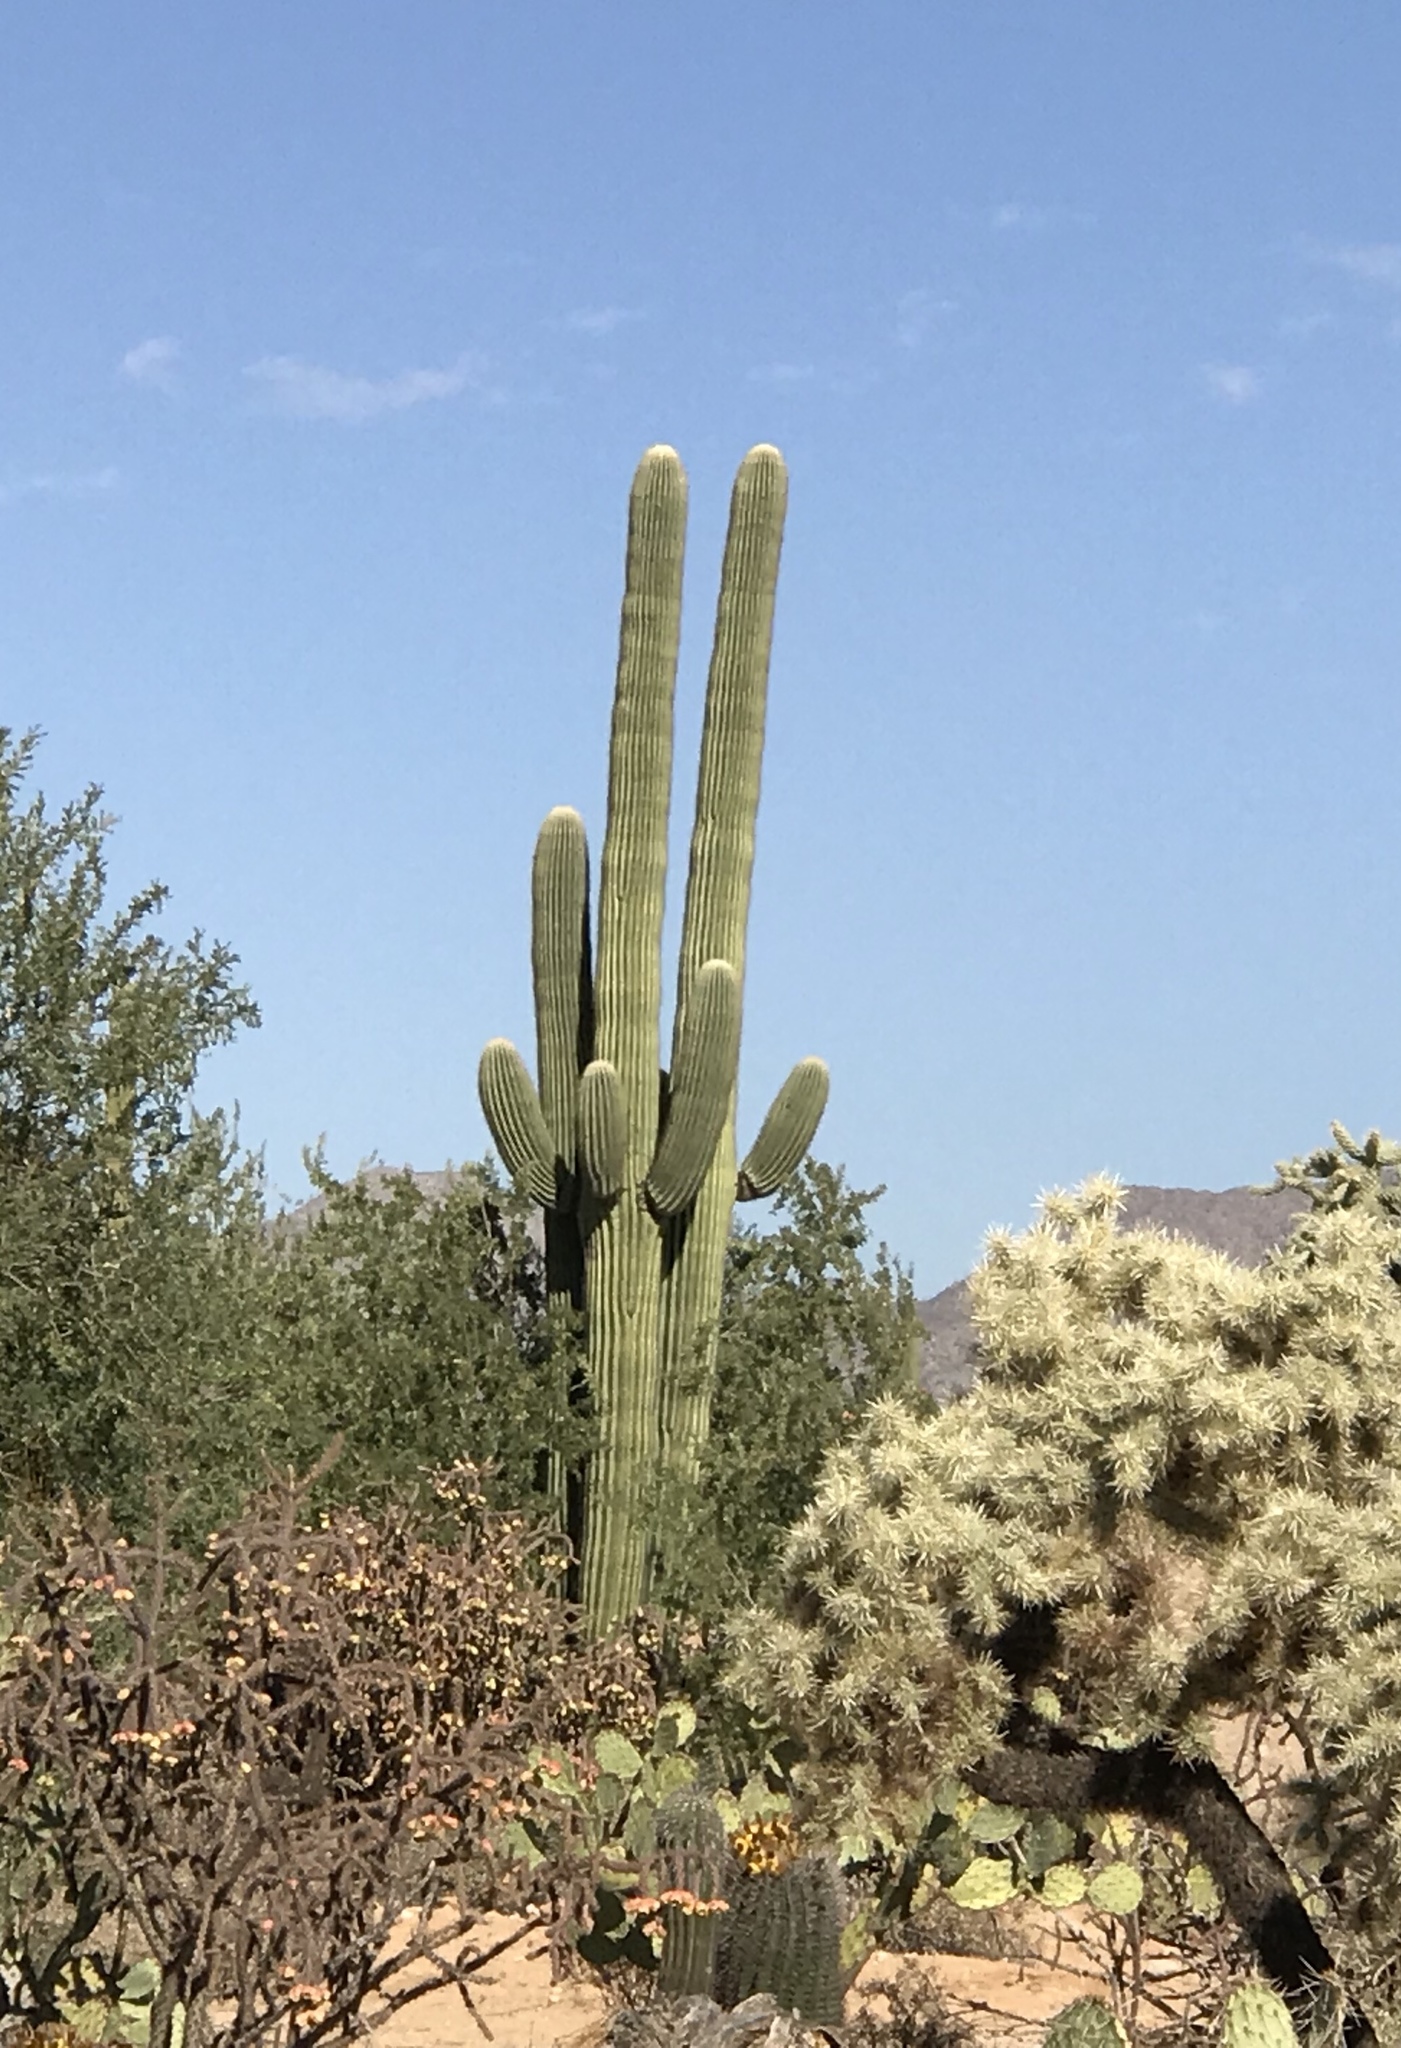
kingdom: Plantae
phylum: Tracheophyta
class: Magnoliopsida
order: Caryophyllales
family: Cactaceae
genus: Carnegiea
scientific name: Carnegiea gigantea
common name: Saguaro
